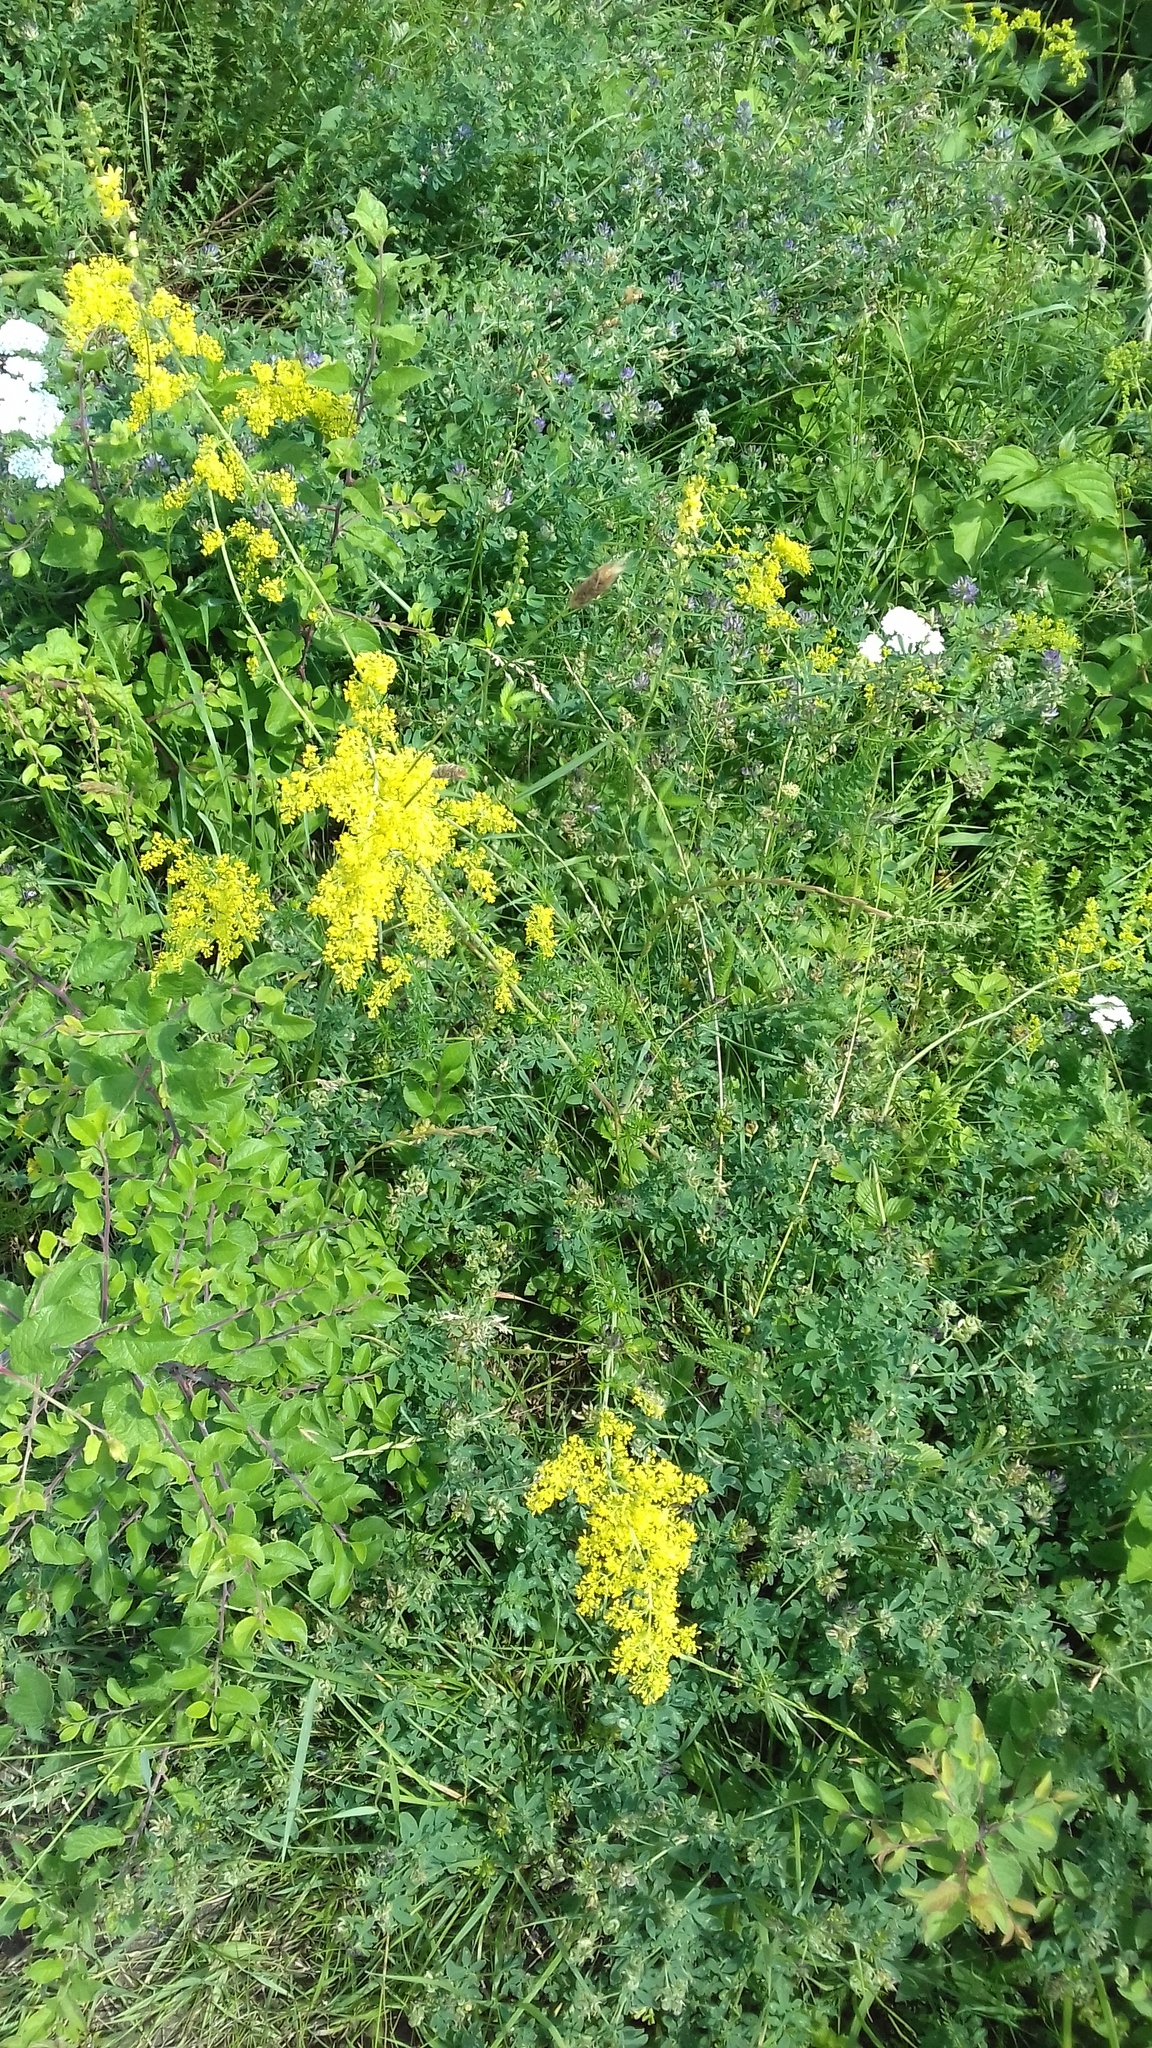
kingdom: Plantae
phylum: Tracheophyta
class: Magnoliopsida
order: Gentianales
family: Rubiaceae
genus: Galium
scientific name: Galium verum
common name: Lady's bedstraw
